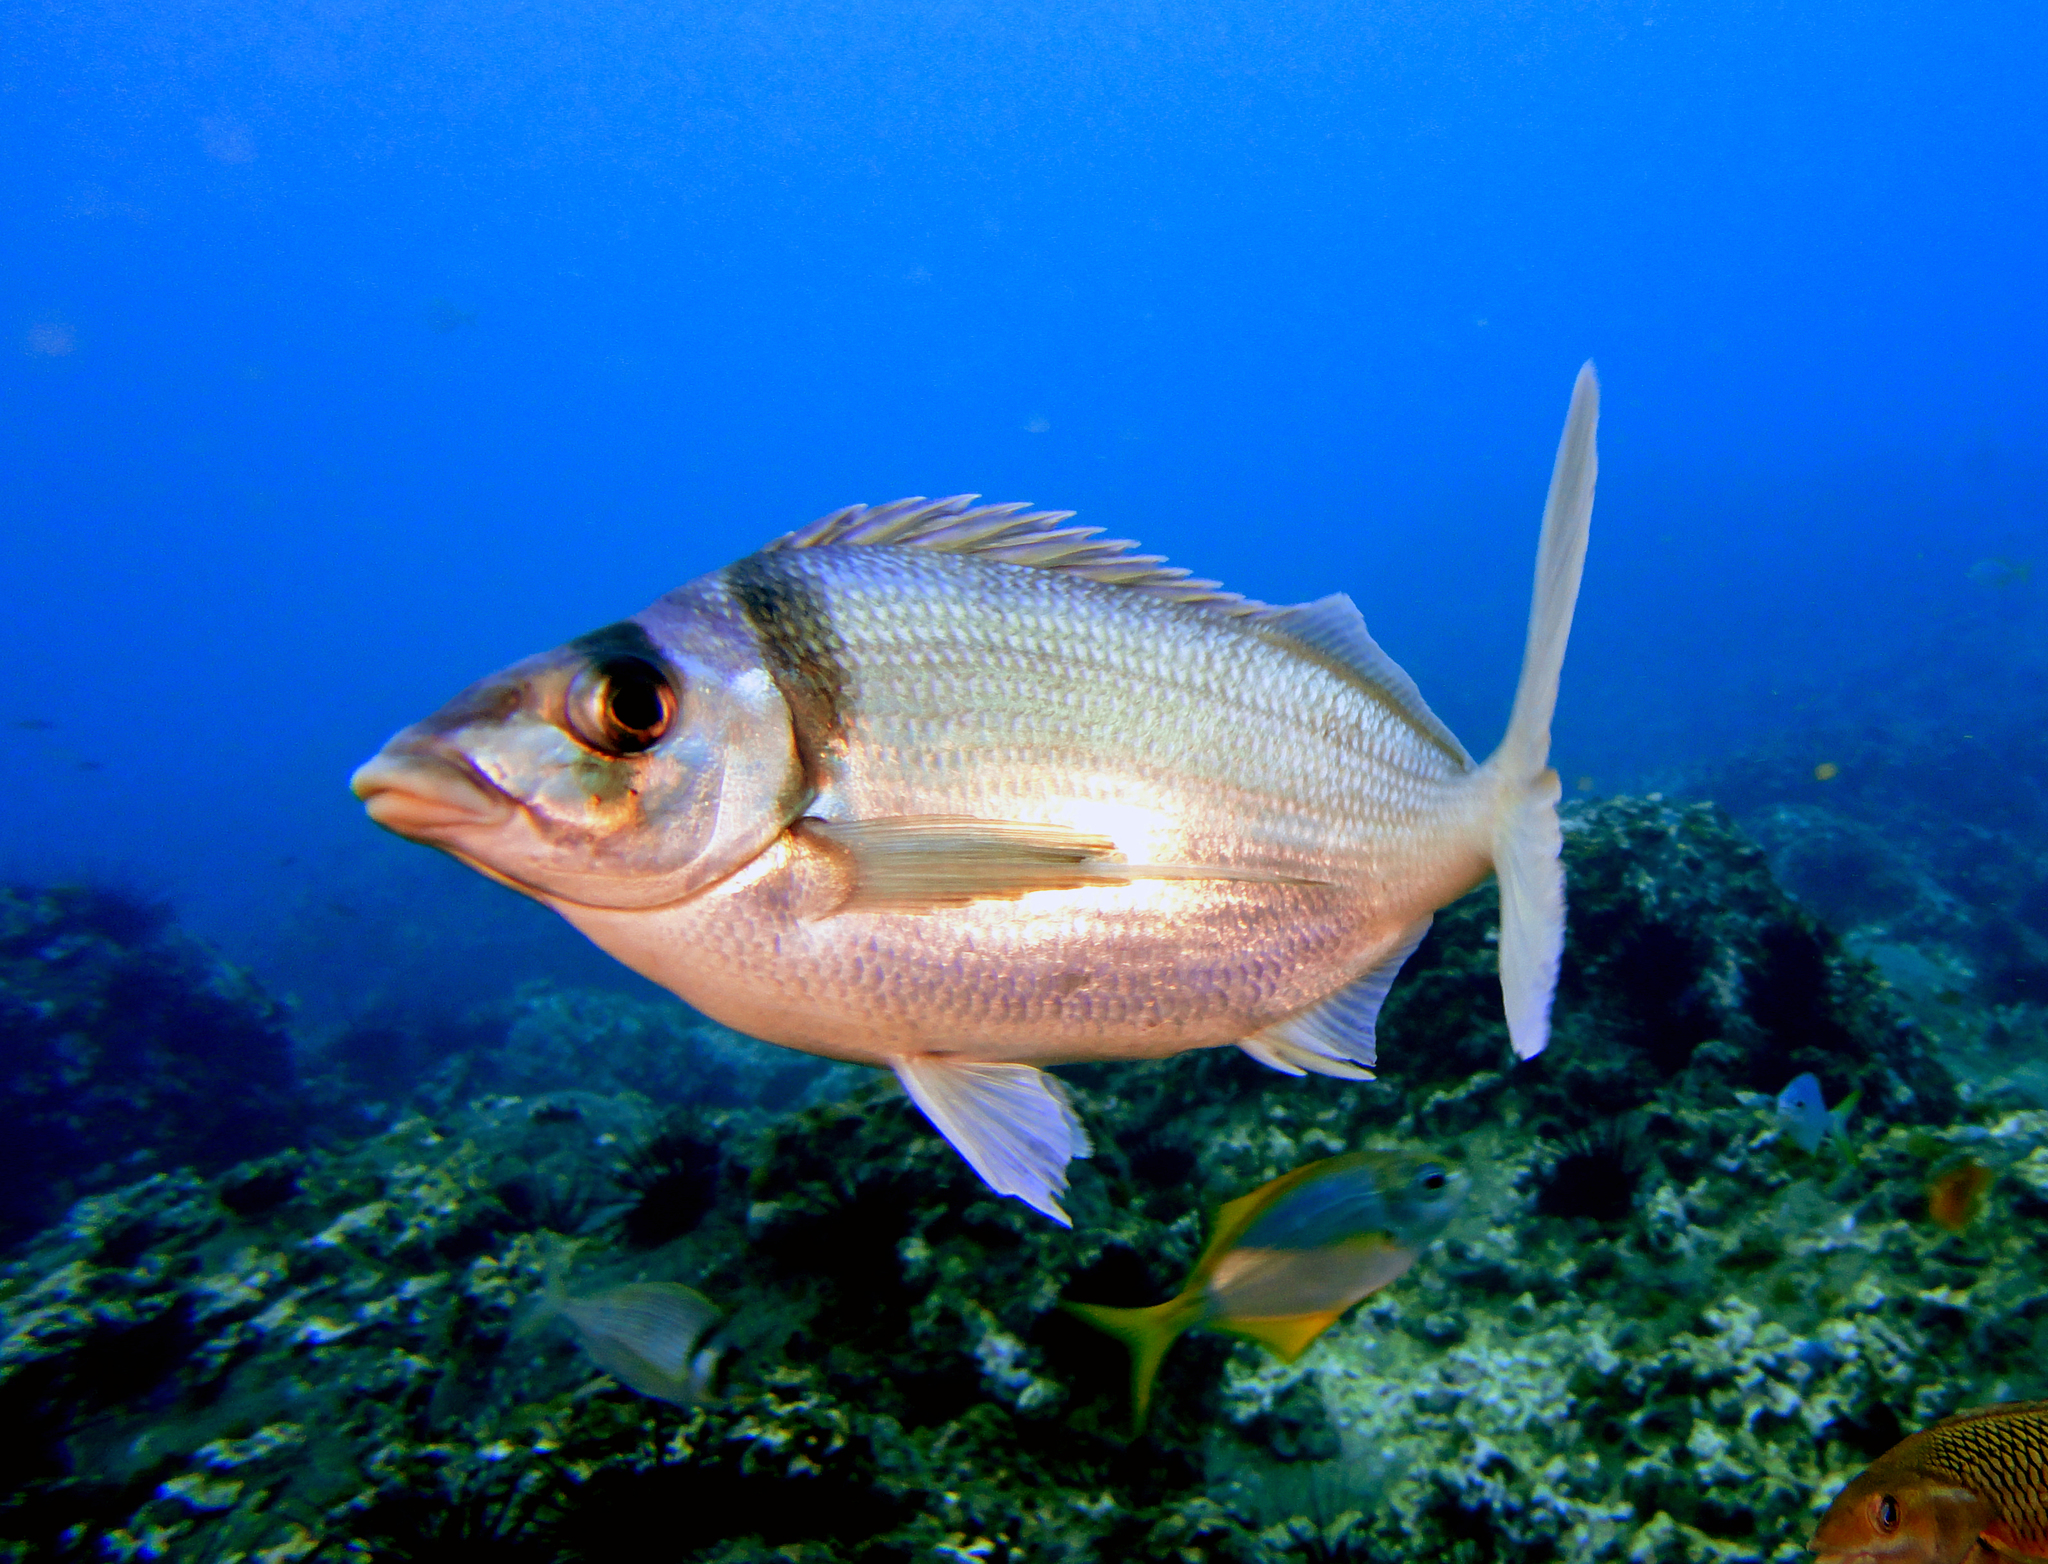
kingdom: Animalia
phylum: Chordata
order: Perciformes
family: Cheilodactylidae
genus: Nemadactylus
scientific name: Nemadactylus gayi
